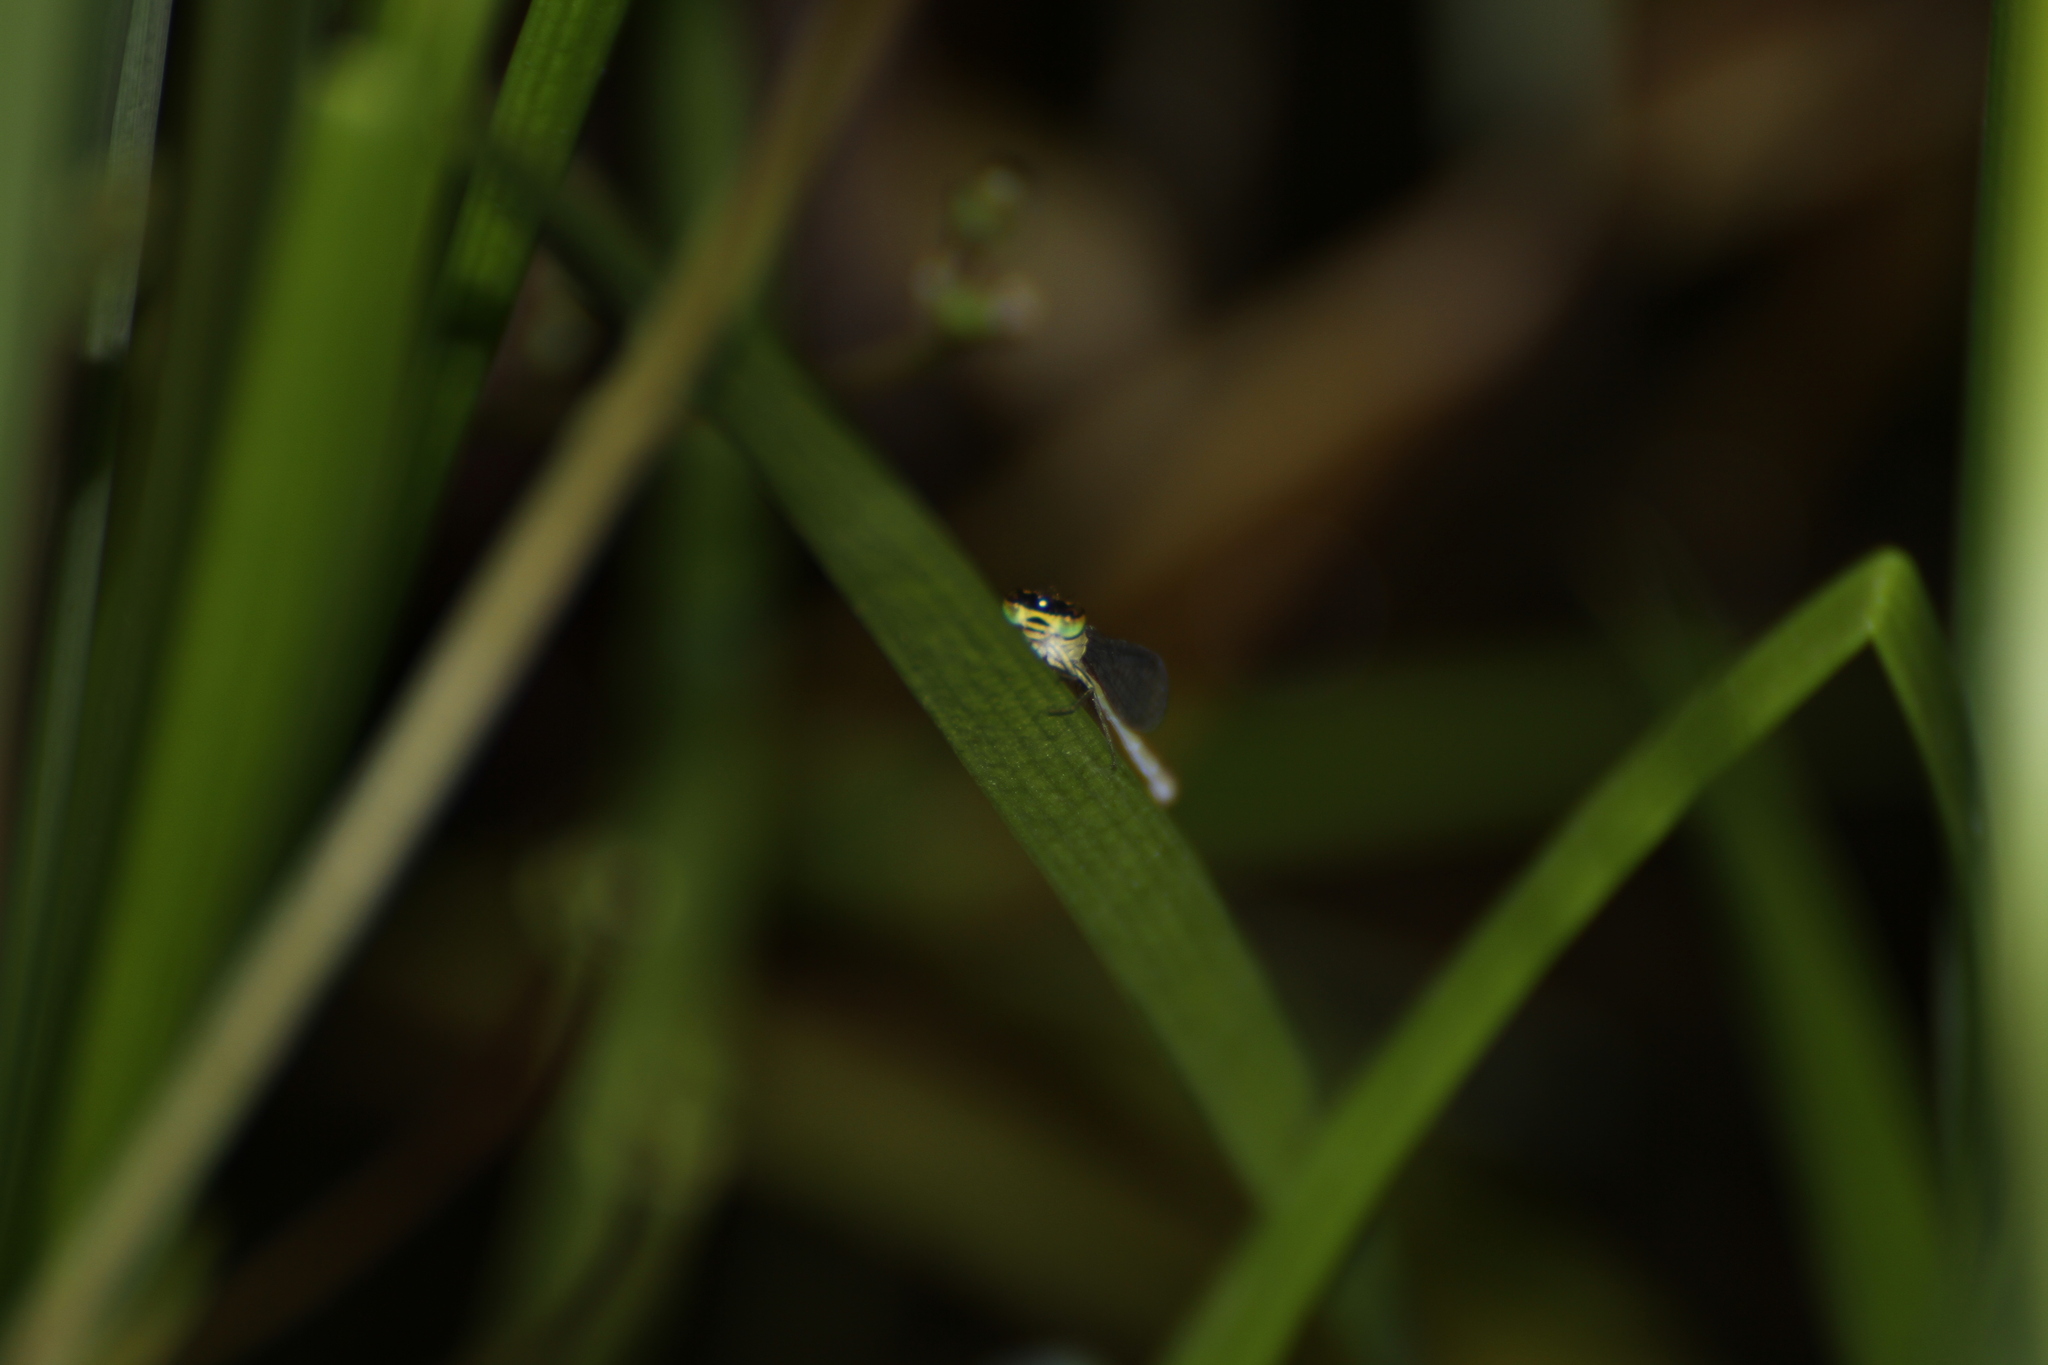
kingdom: Animalia
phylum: Arthropoda
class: Insecta
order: Odonata
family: Coenagrionidae
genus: Ischnura
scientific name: Ischnura elegans
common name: Blue-tailed damselfly
